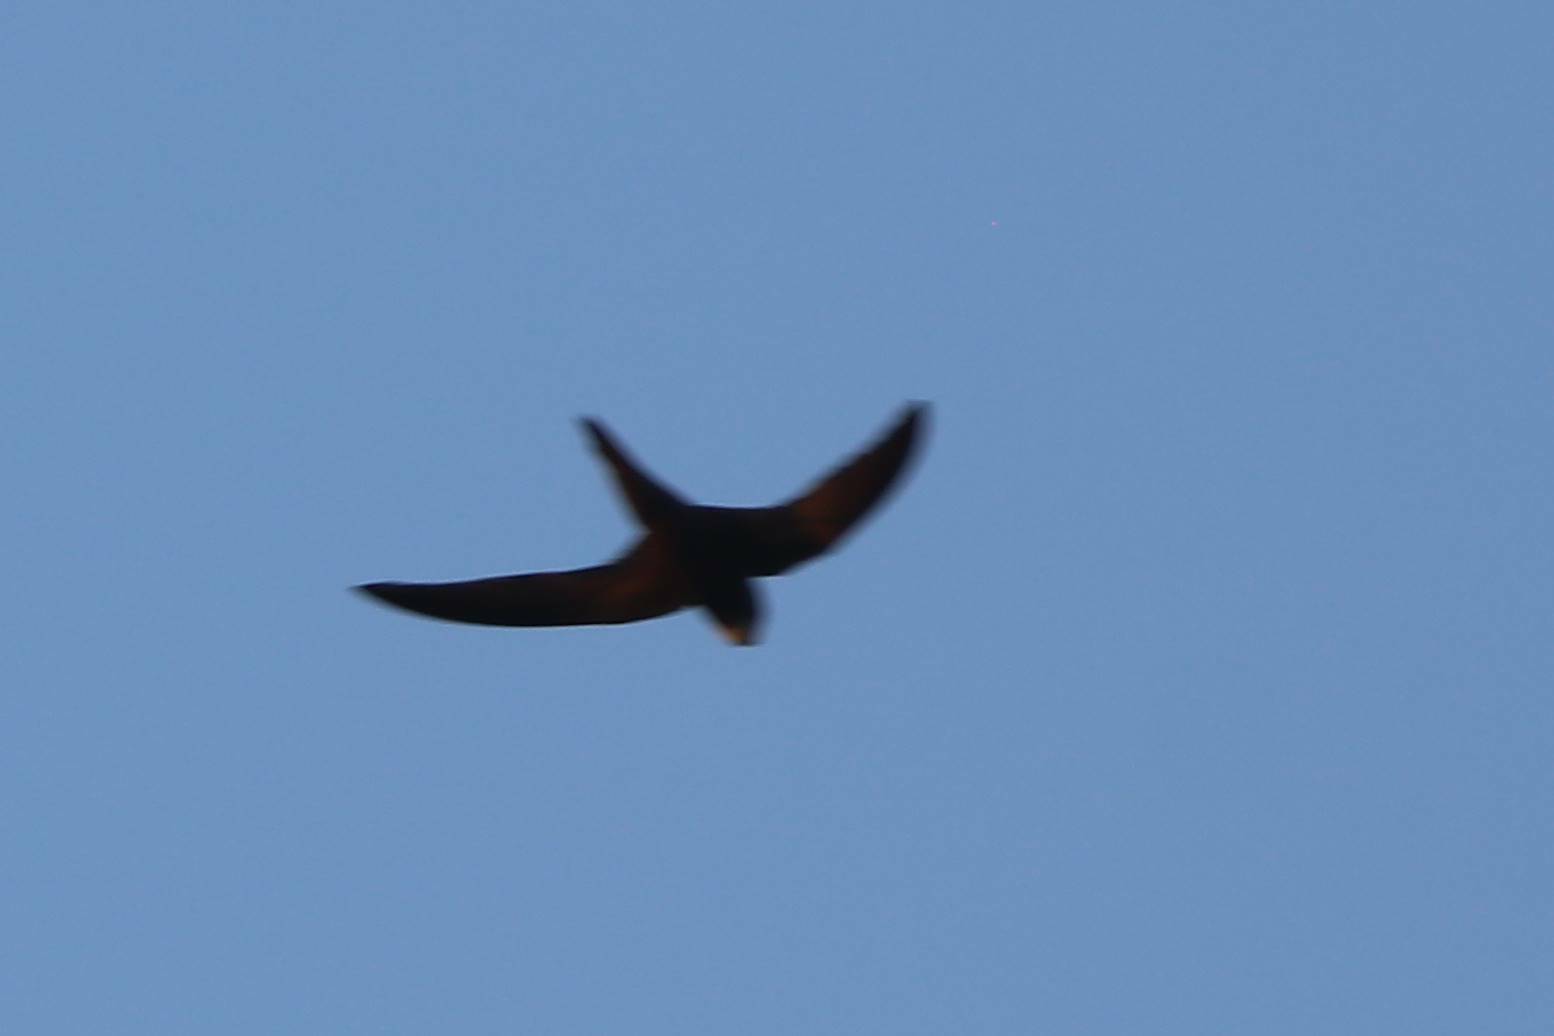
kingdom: Animalia
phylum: Chordata
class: Aves
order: Apodiformes
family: Apodidae
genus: Apus
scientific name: Apus pallidus
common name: Pallid swift
